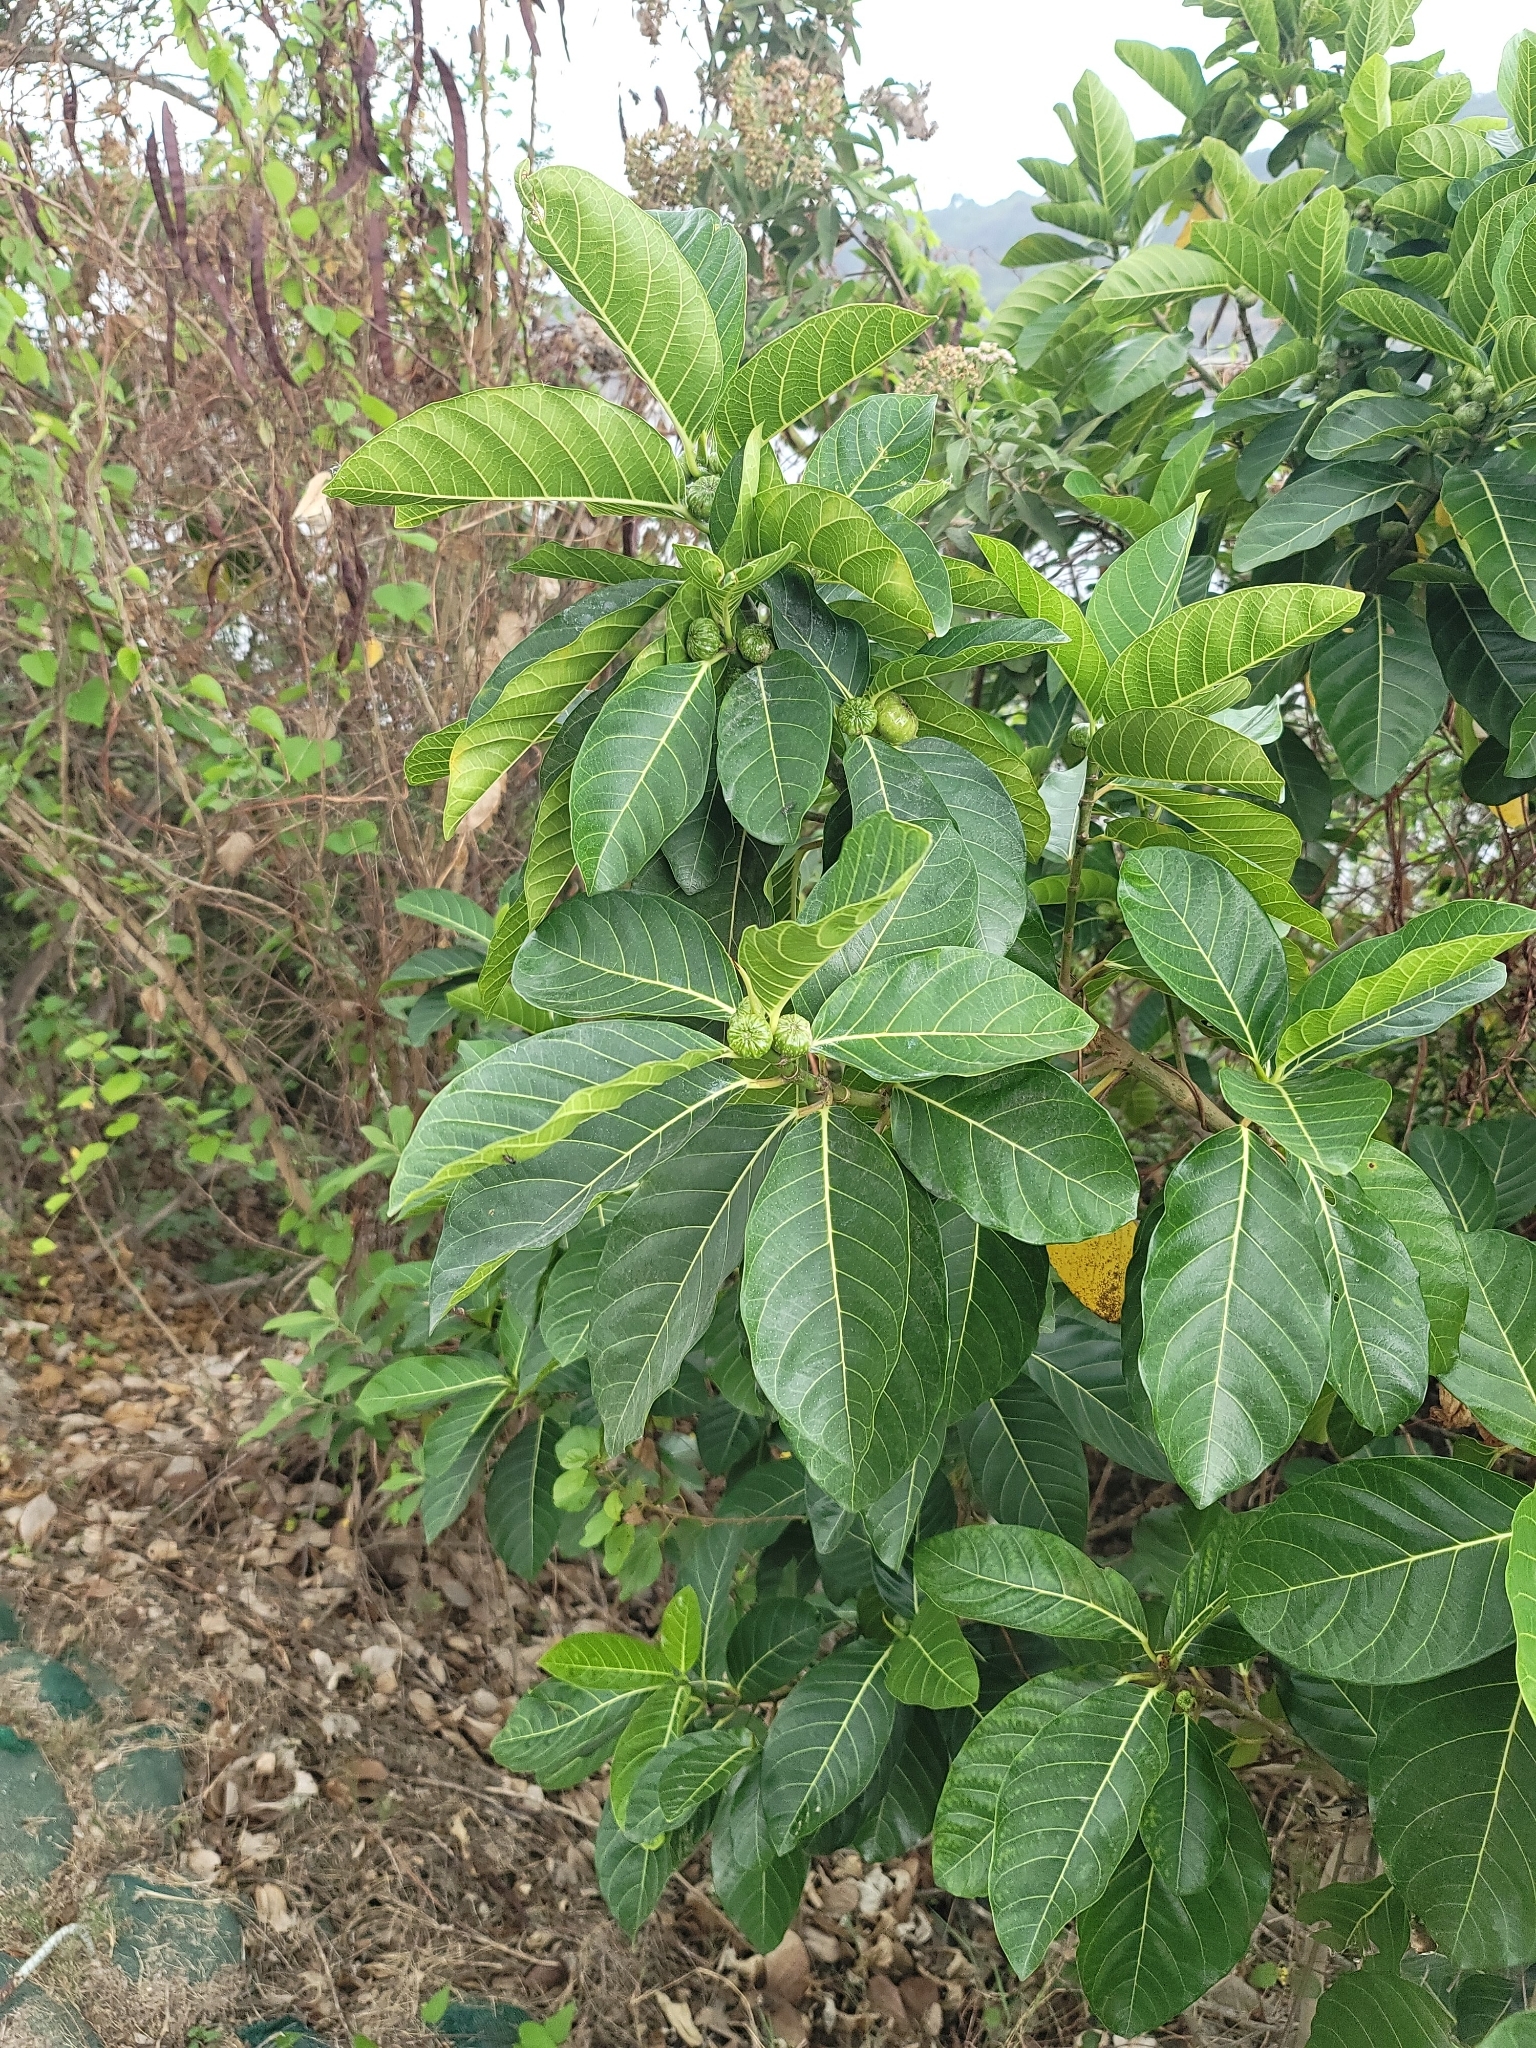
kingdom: Plantae
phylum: Tracheophyta
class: Magnoliopsida
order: Rosales
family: Moraceae
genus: Ficus
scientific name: Ficus septica
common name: Septic fig
